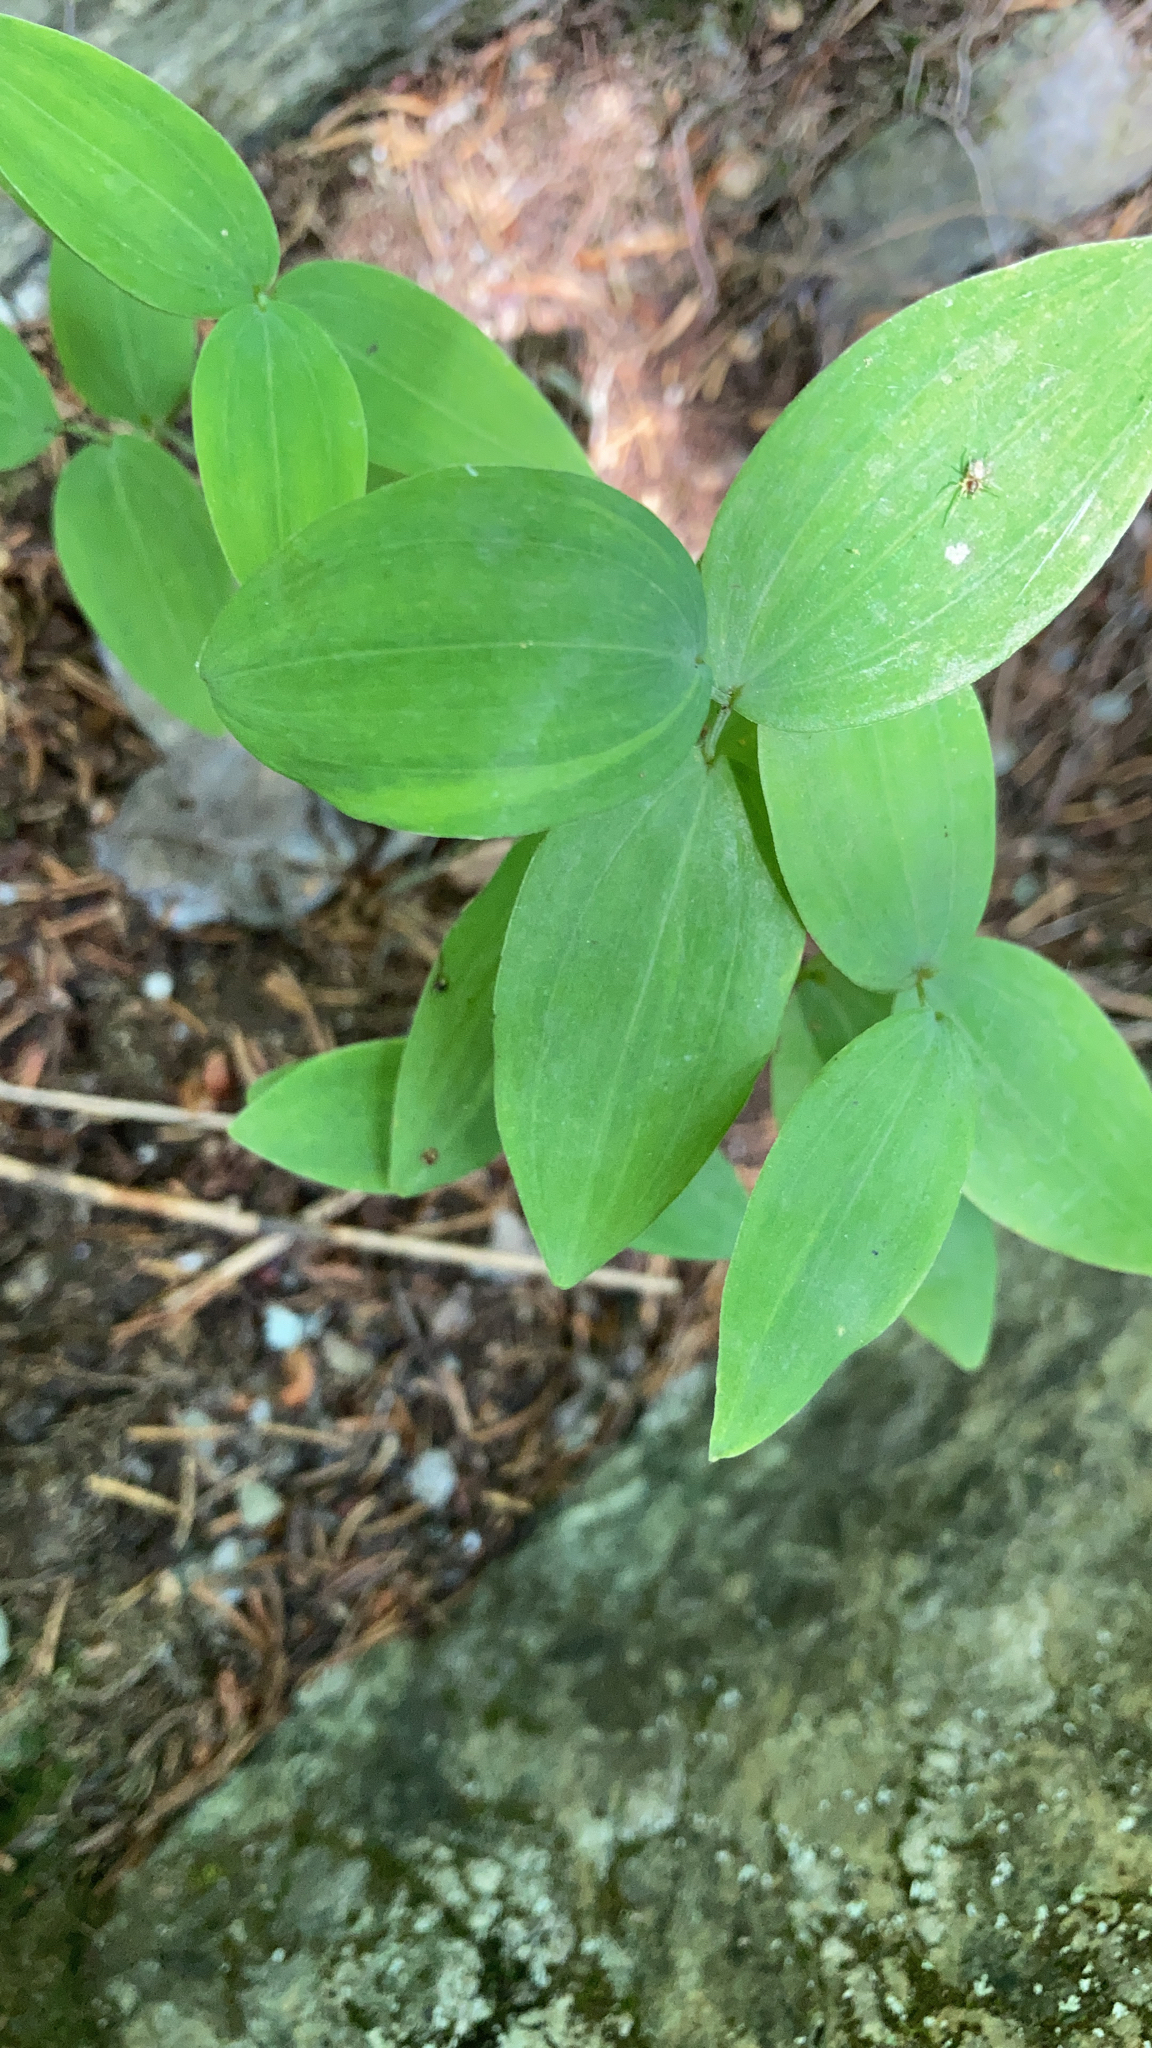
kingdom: Plantae
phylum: Tracheophyta
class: Liliopsida
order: Asparagales
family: Asparagaceae
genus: Polygonatum
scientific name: Polygonatum pubescens
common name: Downy solomon's seal
